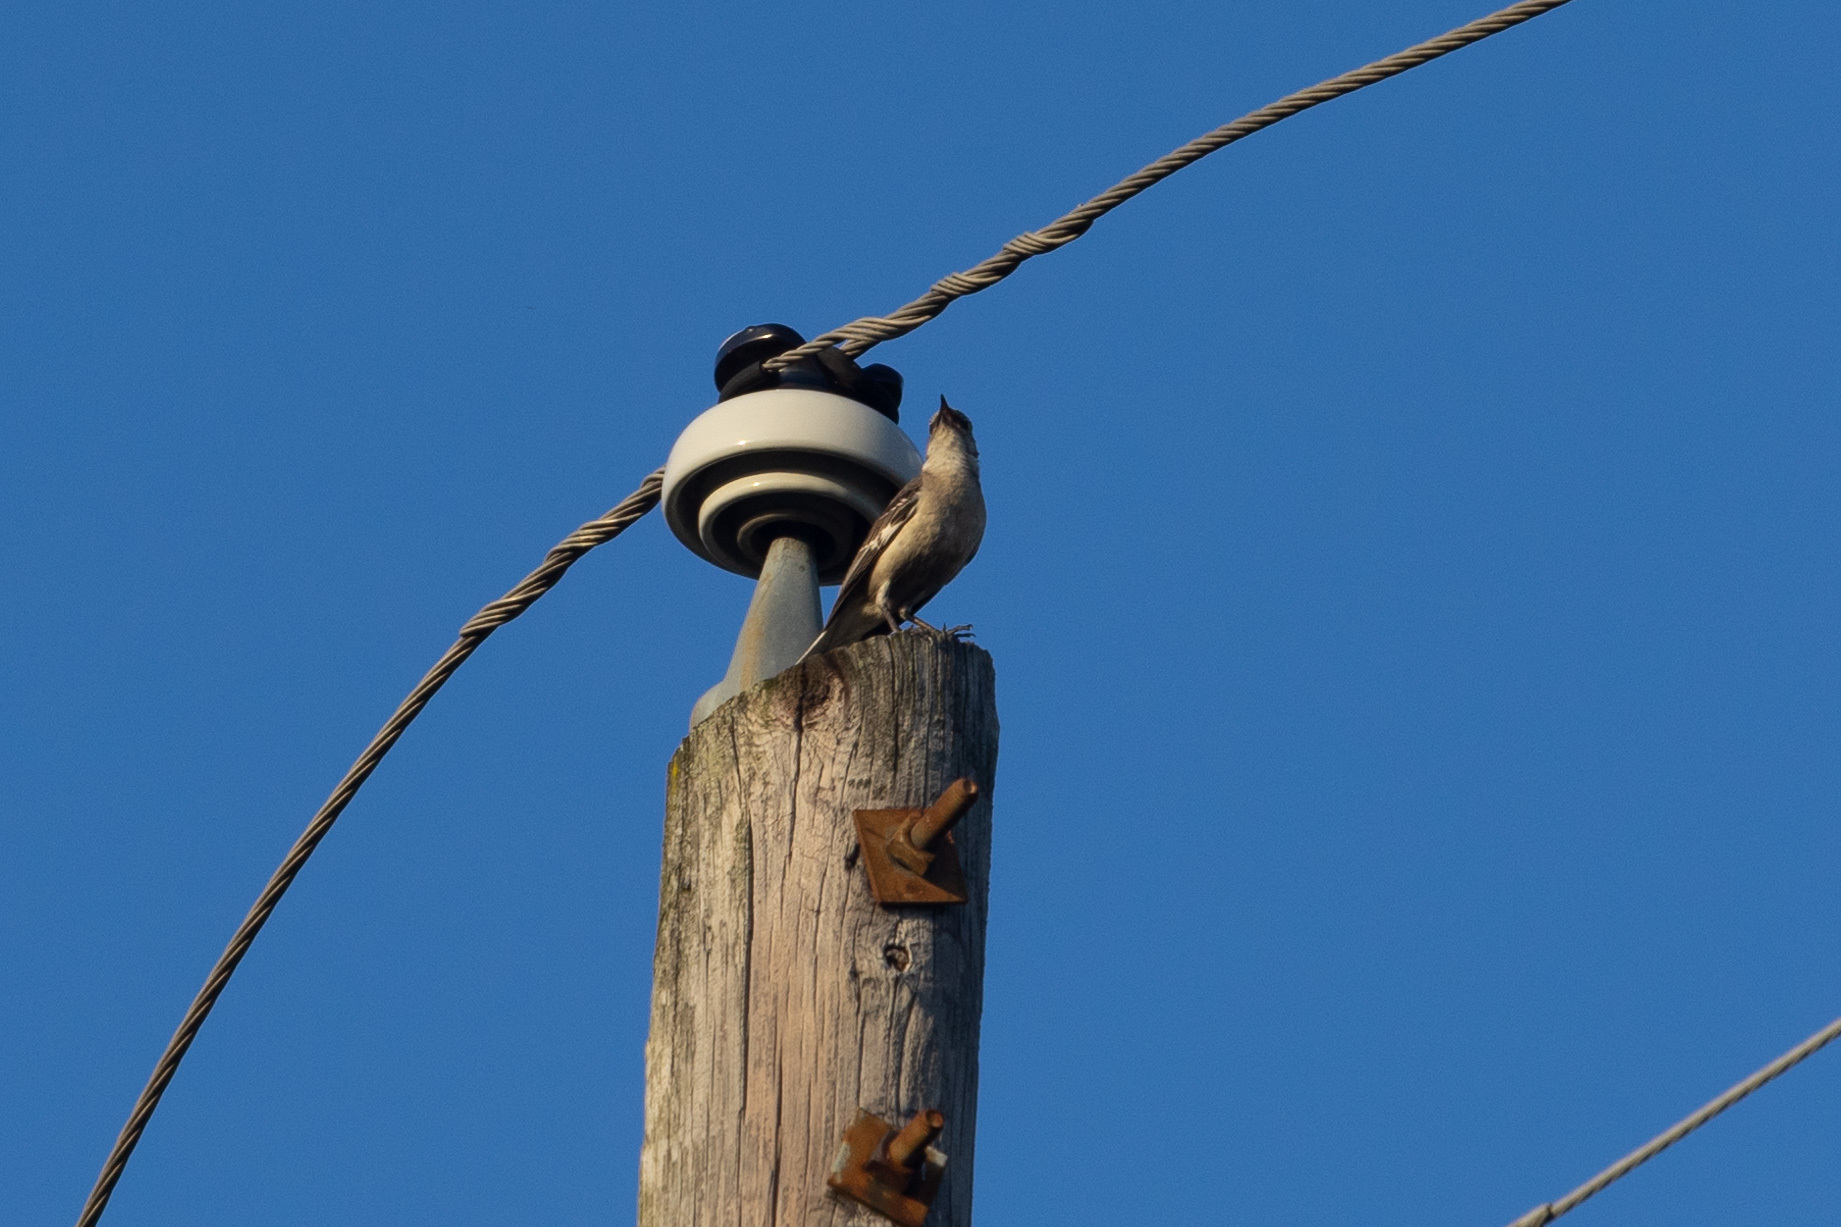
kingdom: Animalia
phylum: Chordata
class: Aves
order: Passeriformes
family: Mimidae
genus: Mimus
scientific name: Mimus polyglottos
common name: Northern mockingbird
